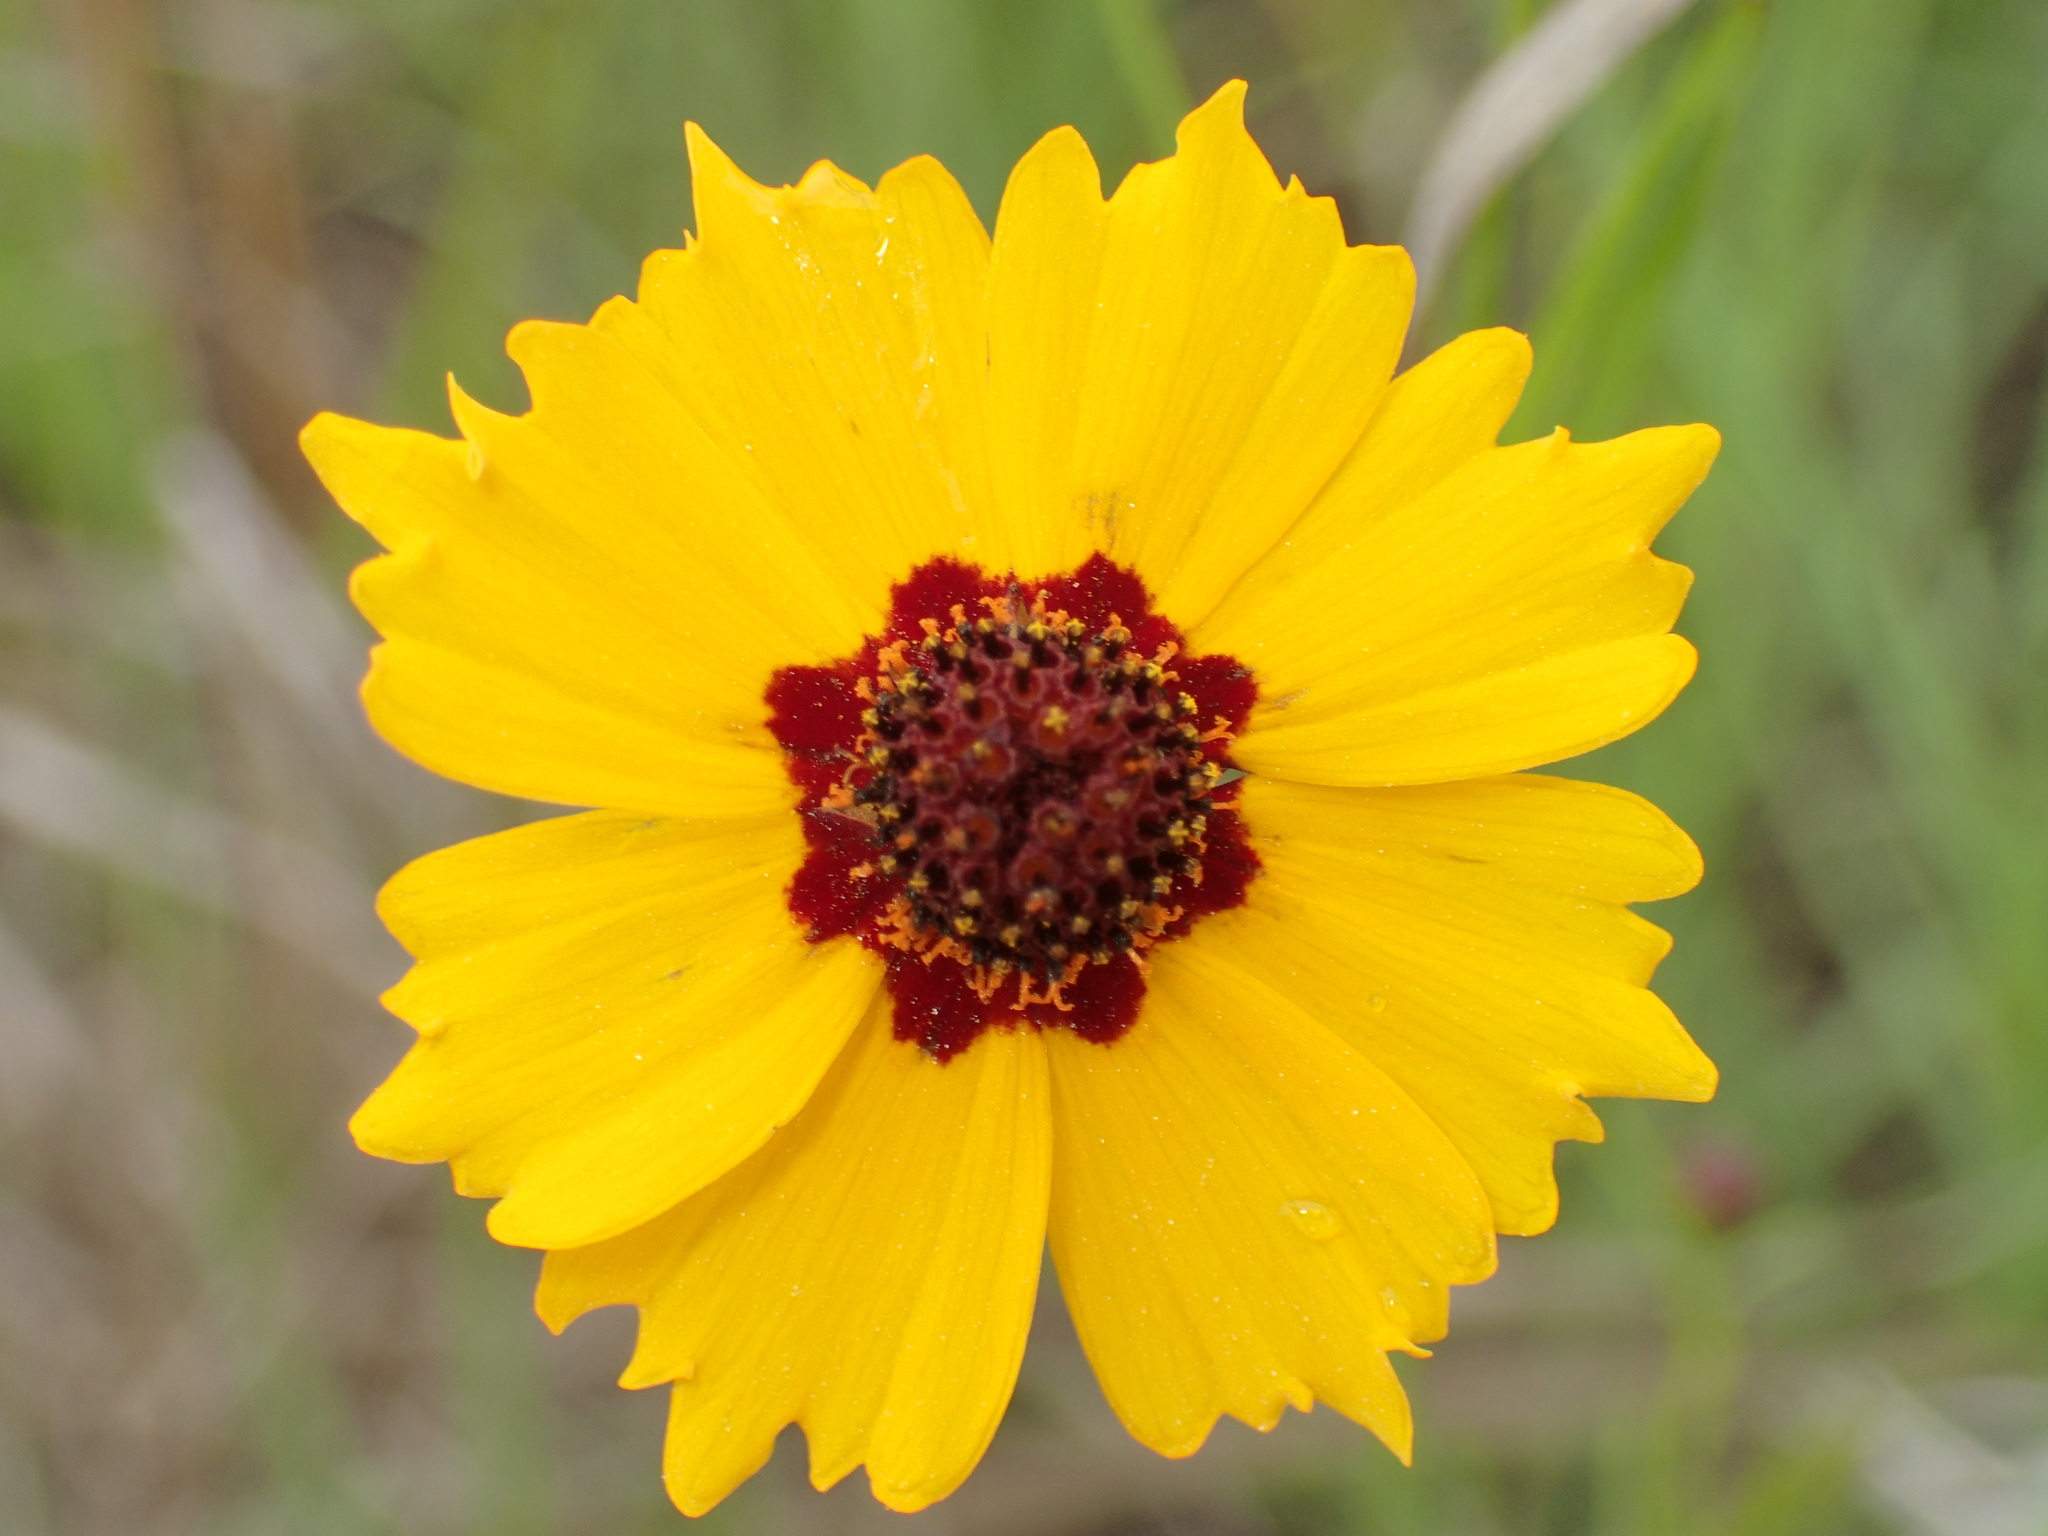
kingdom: Plantae
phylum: Tracheophyta
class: Magnoliopsida
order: Asterales
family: Asteraceae
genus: Coreopsis
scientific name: Coreopsis tinctoria
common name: Garden tickseed
